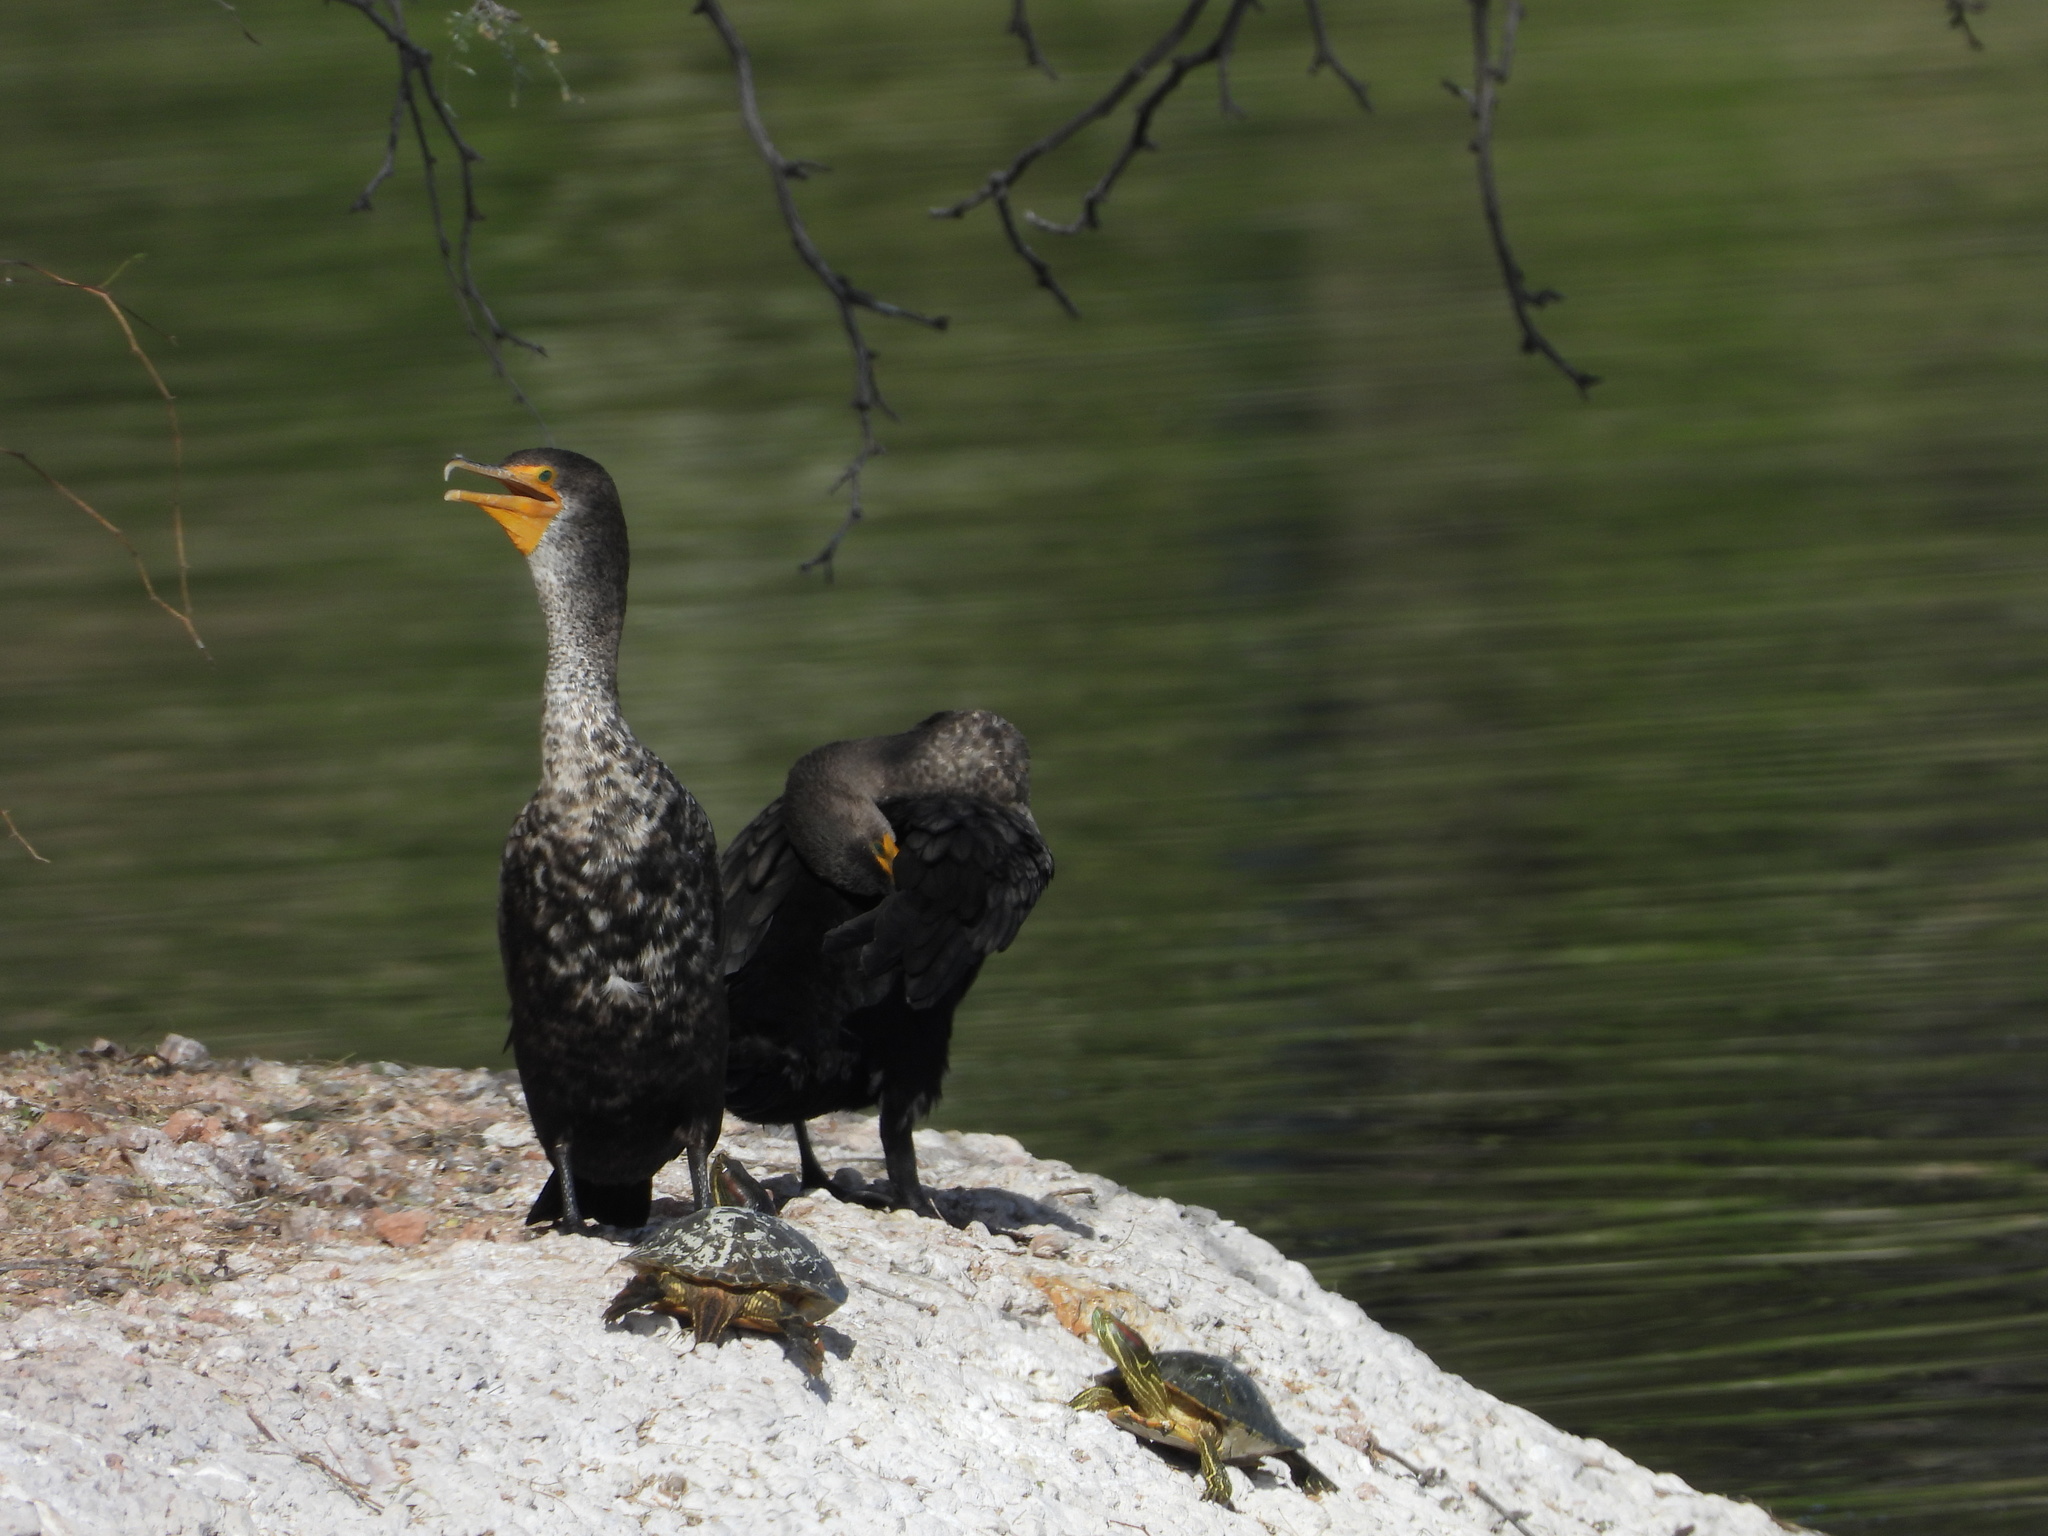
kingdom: Animalia
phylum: Chordata
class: Aves
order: Suliformes
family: Phalacrocoracidae
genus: Phalacrocorax
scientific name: Phalacrocorax auritus
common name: Double-crested cormorant
